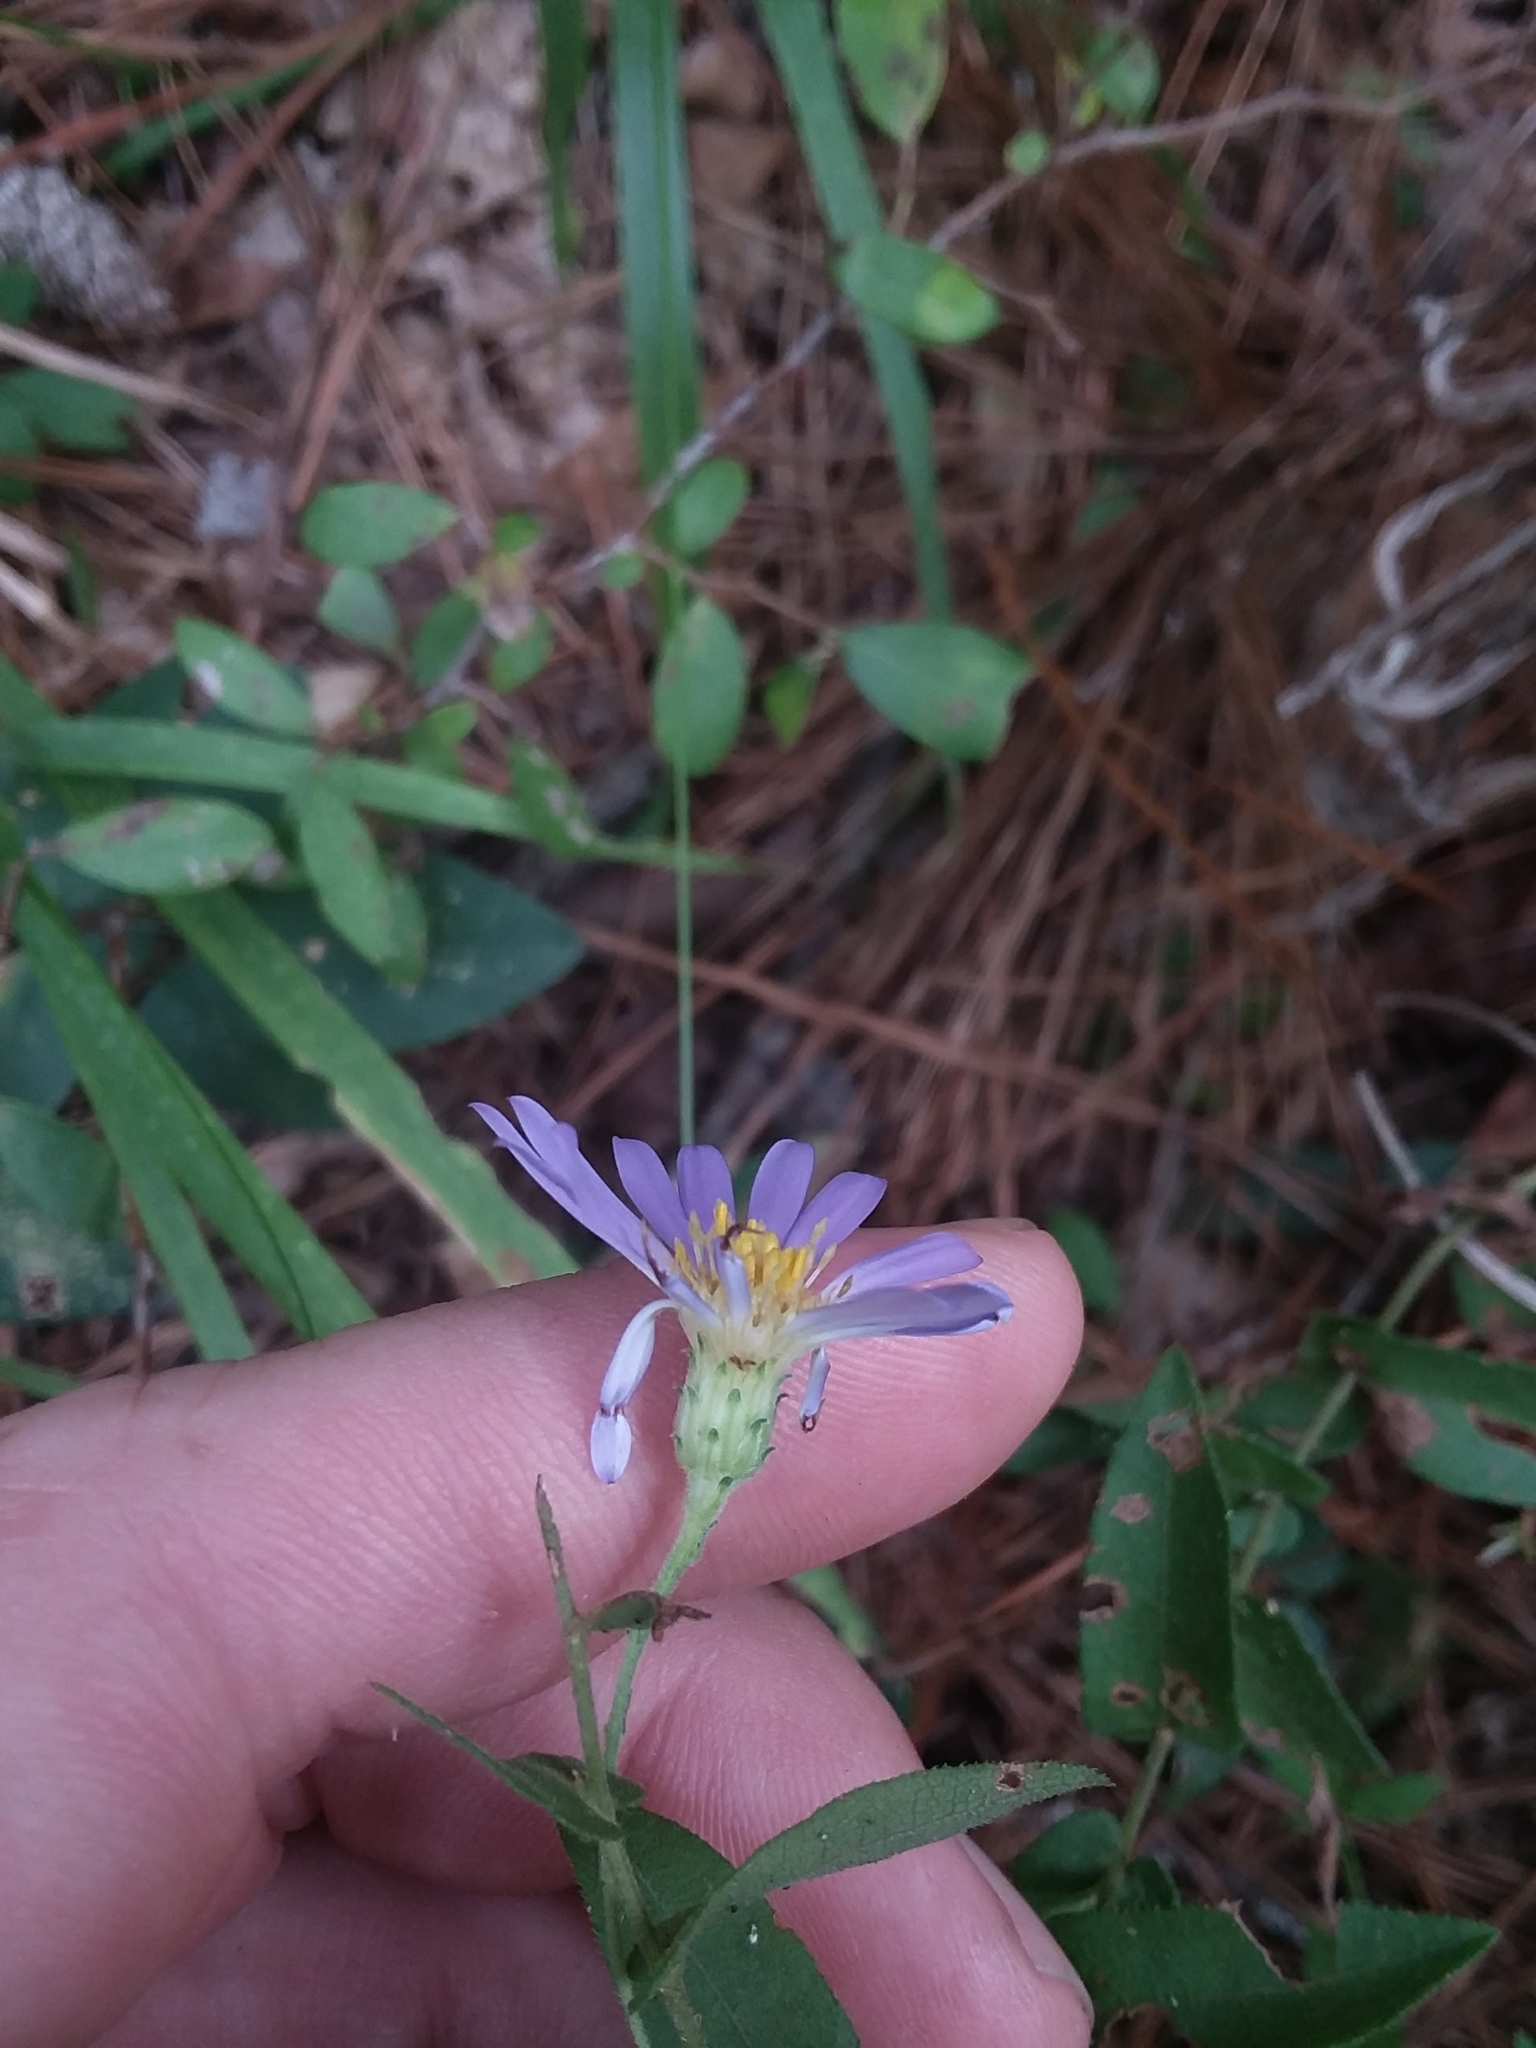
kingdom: Plantae
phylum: Tracheophyta
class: Magnoliopsida
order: Asterales
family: Asteraceae
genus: Symphyotrichum
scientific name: Symphyotrichum patens
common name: Late purple aster
